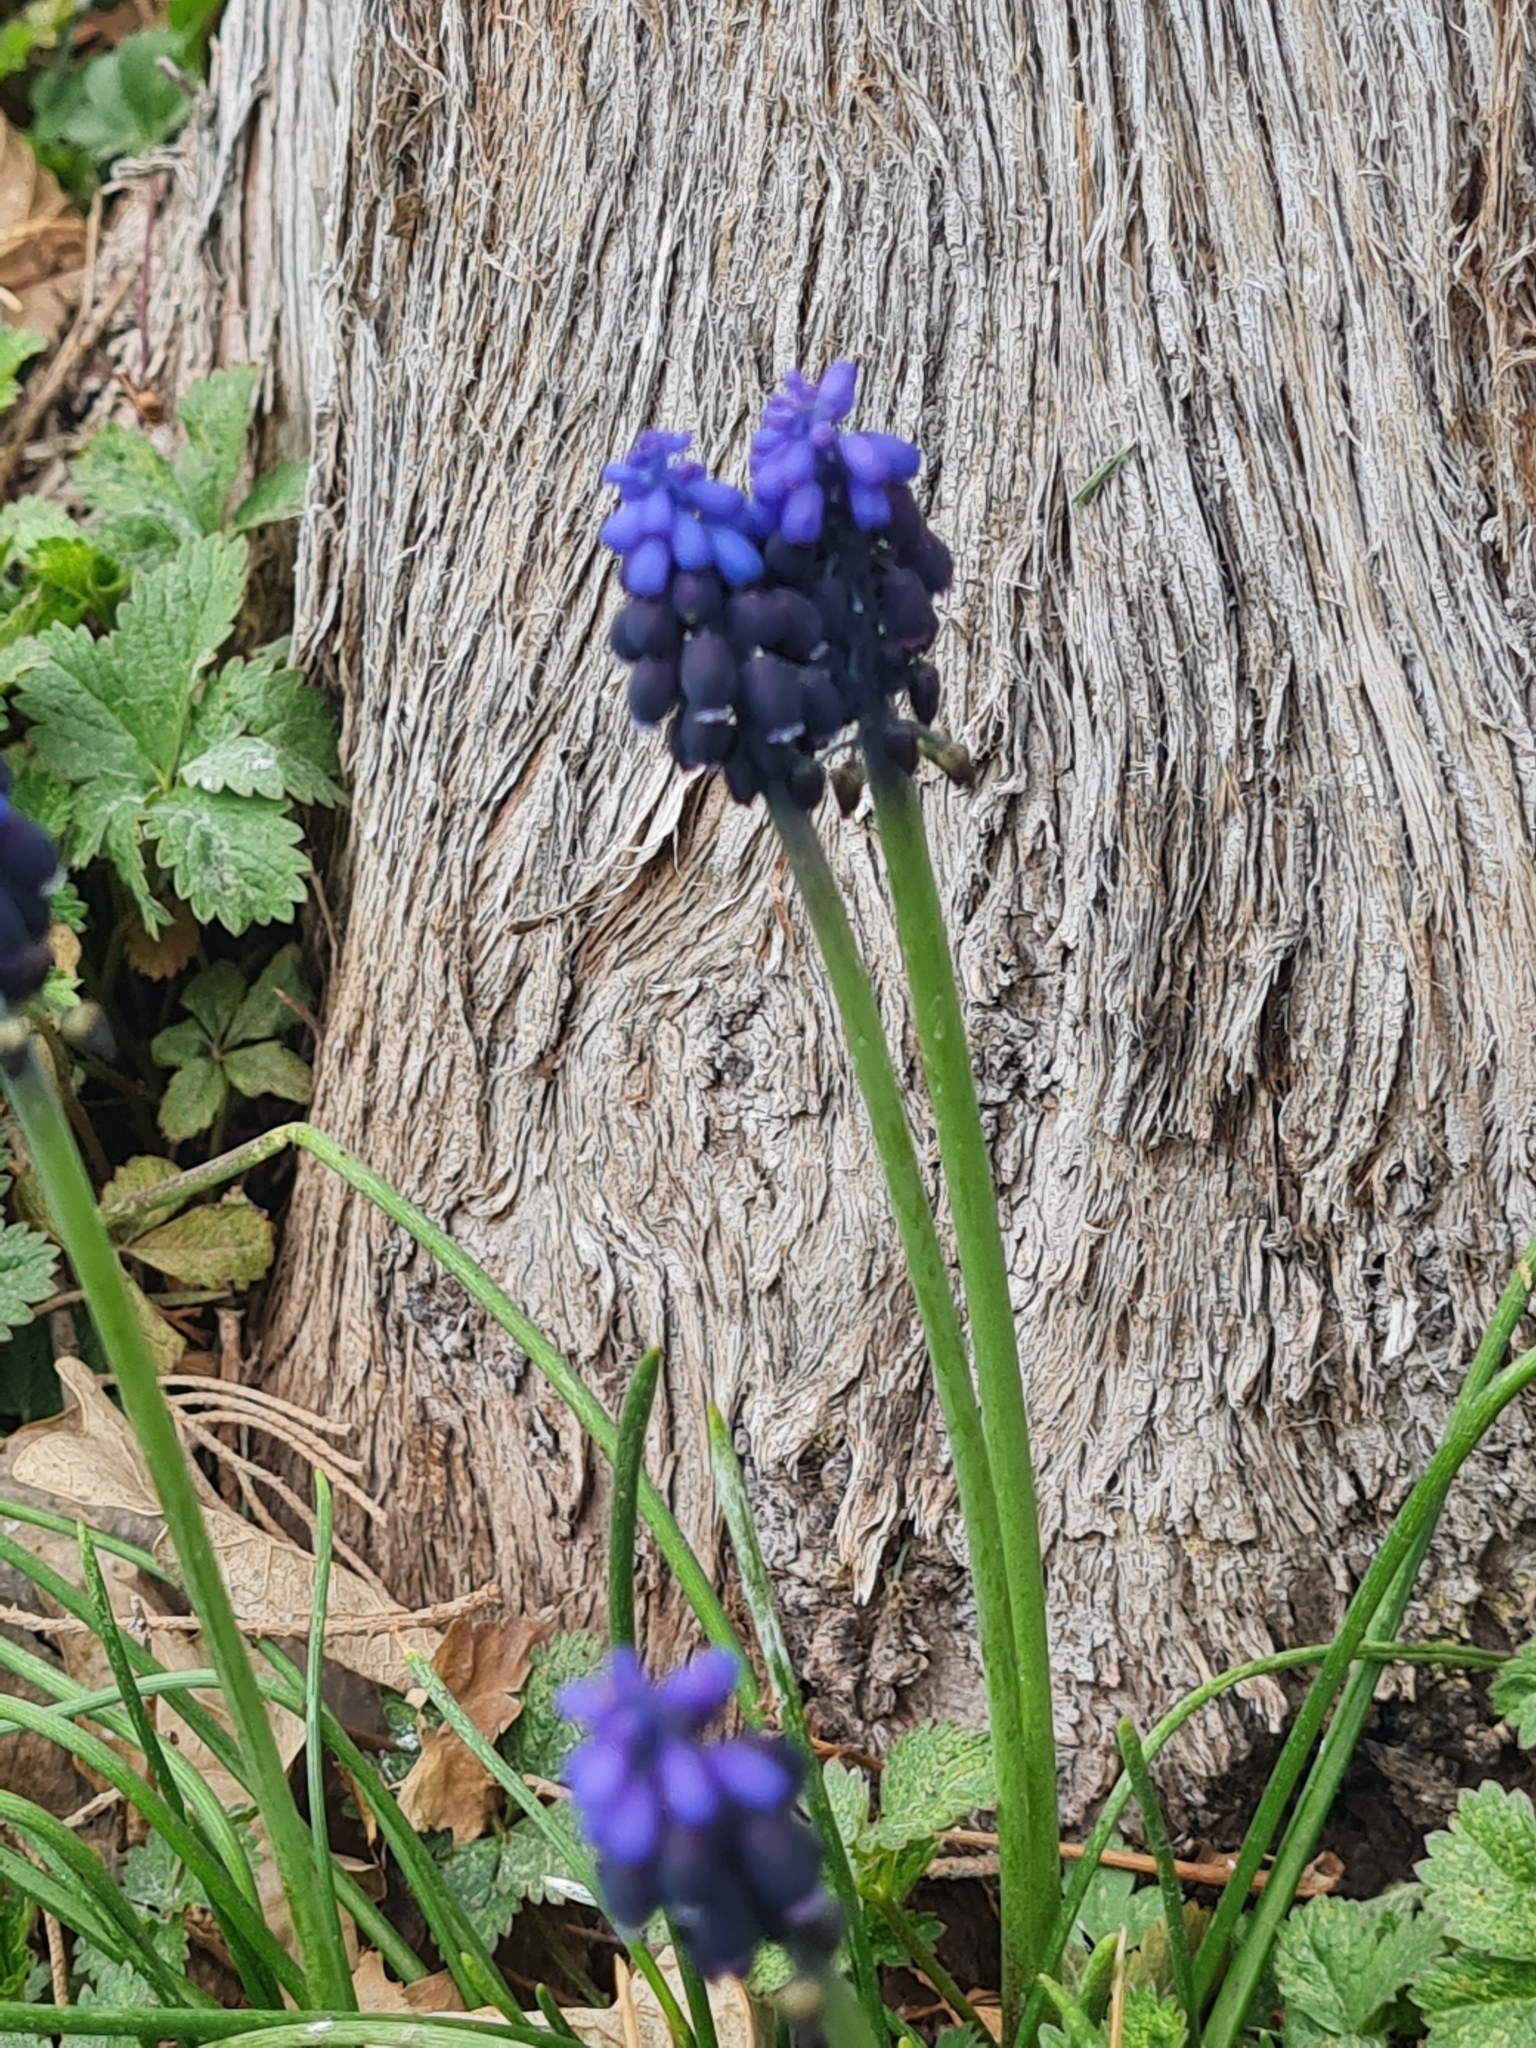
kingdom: Plantae
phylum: Tracheophyta
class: Liliopsida
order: Asparagales
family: Asparagaceae
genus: Muscari
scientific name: Muscari neglectum
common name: Grape-hyacinth
